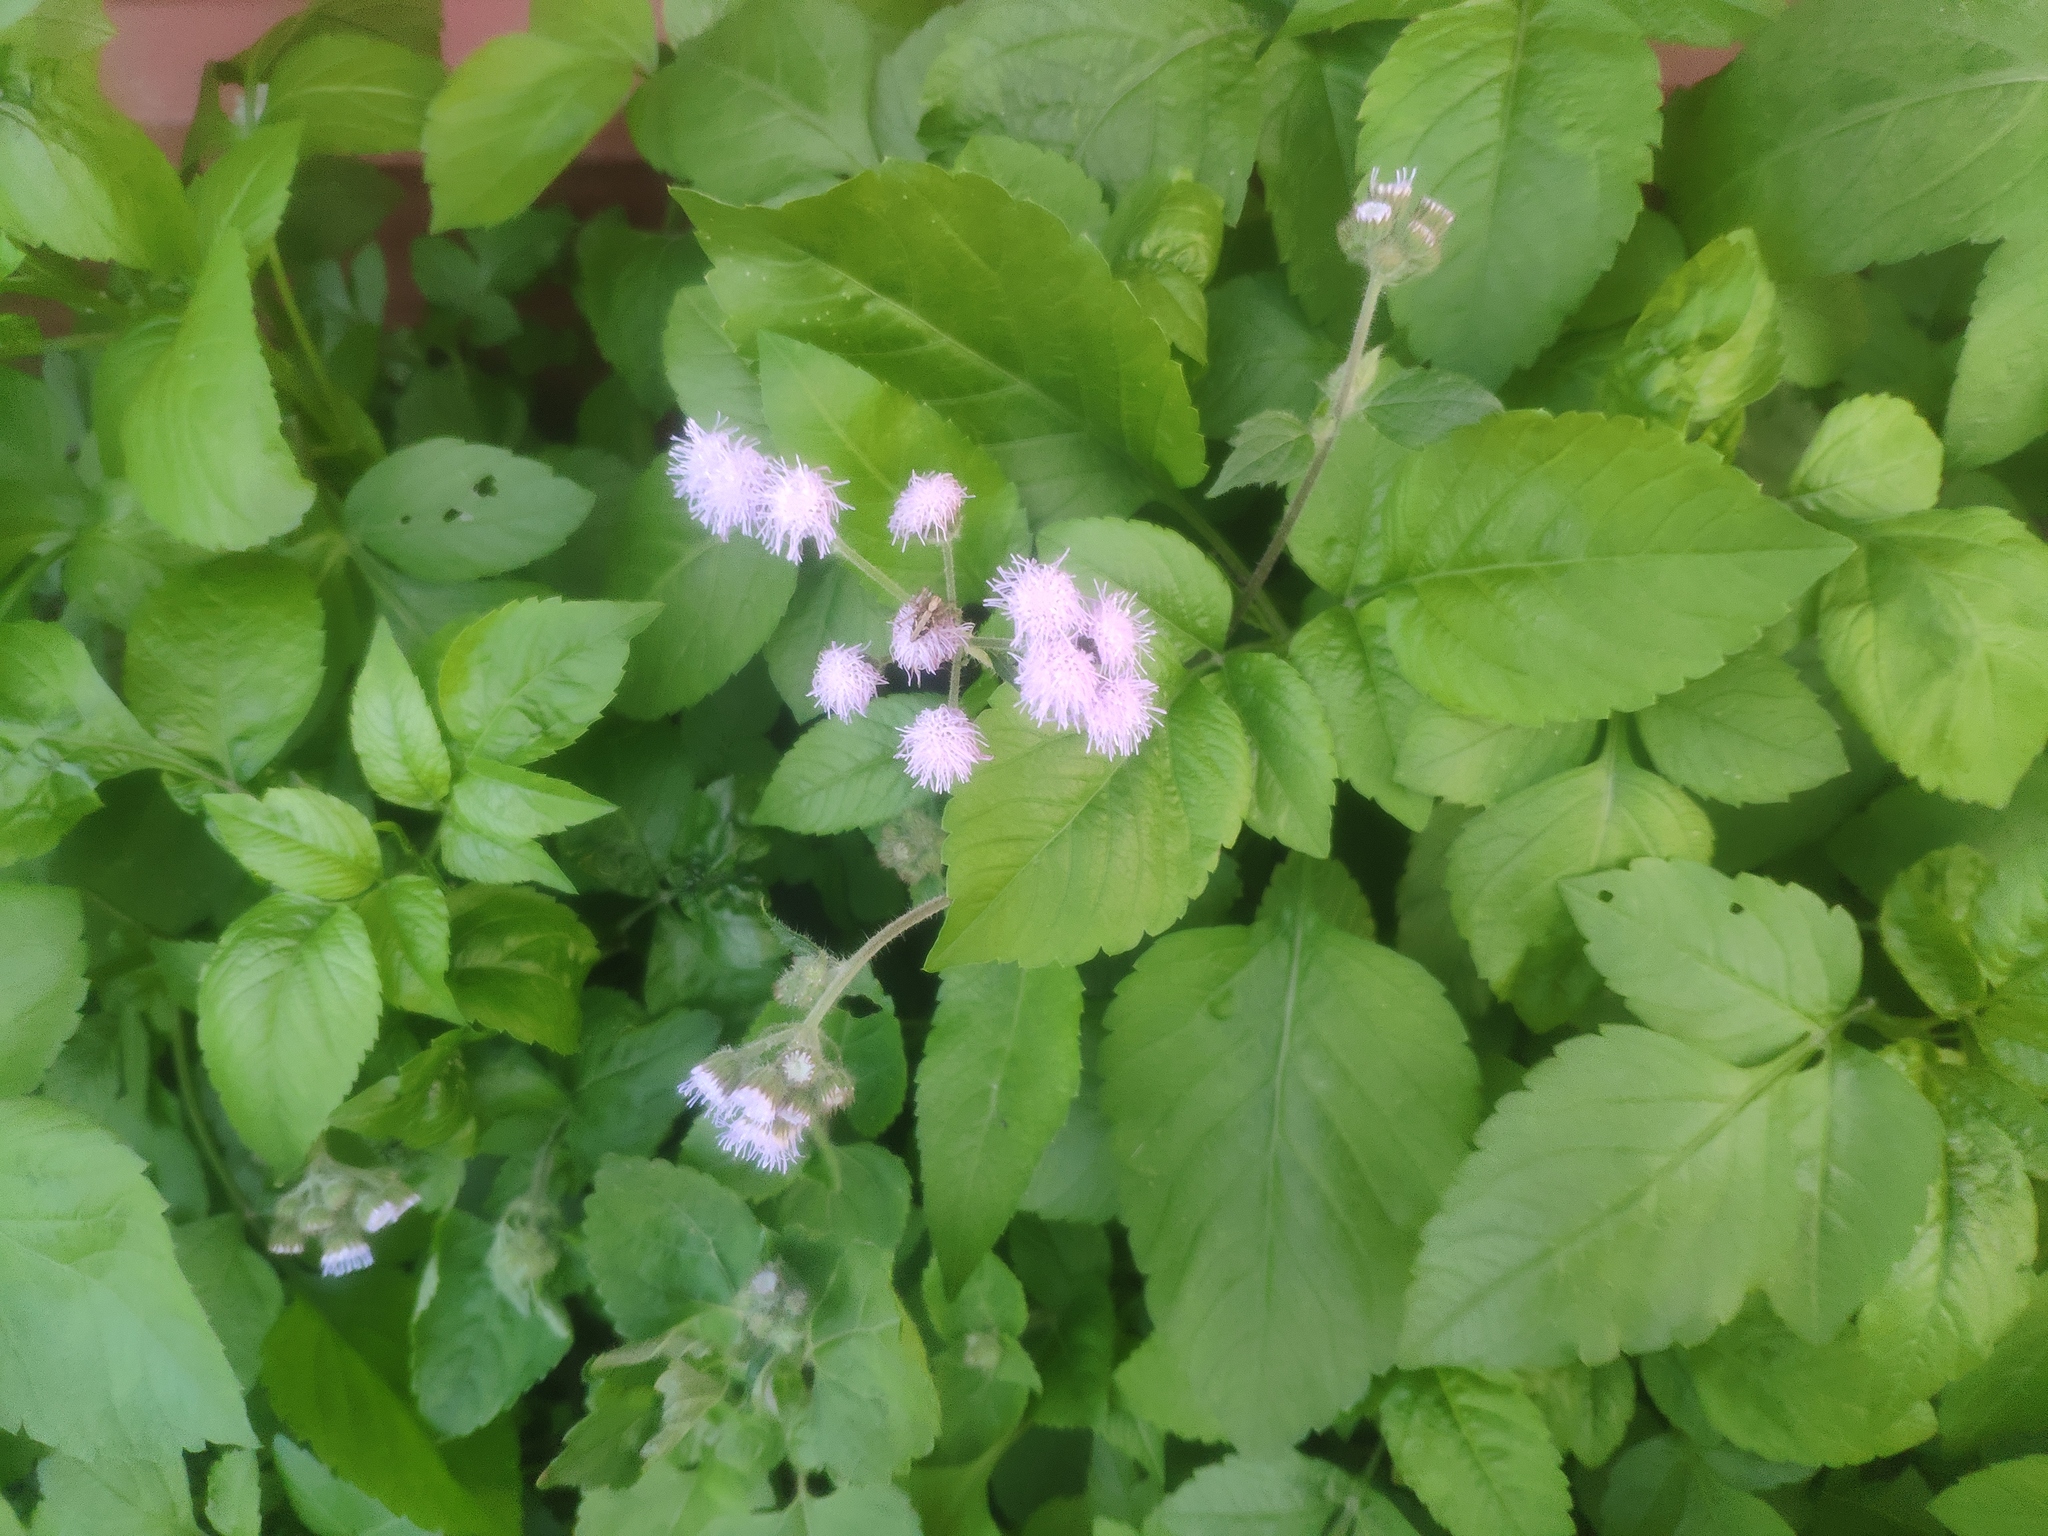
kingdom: Plantae
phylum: Tracheophyta
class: Magnoliopsida
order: Asterales
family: Asteraceae
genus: Ageratum
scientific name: Ageratum houstonianum
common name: Bluemink
